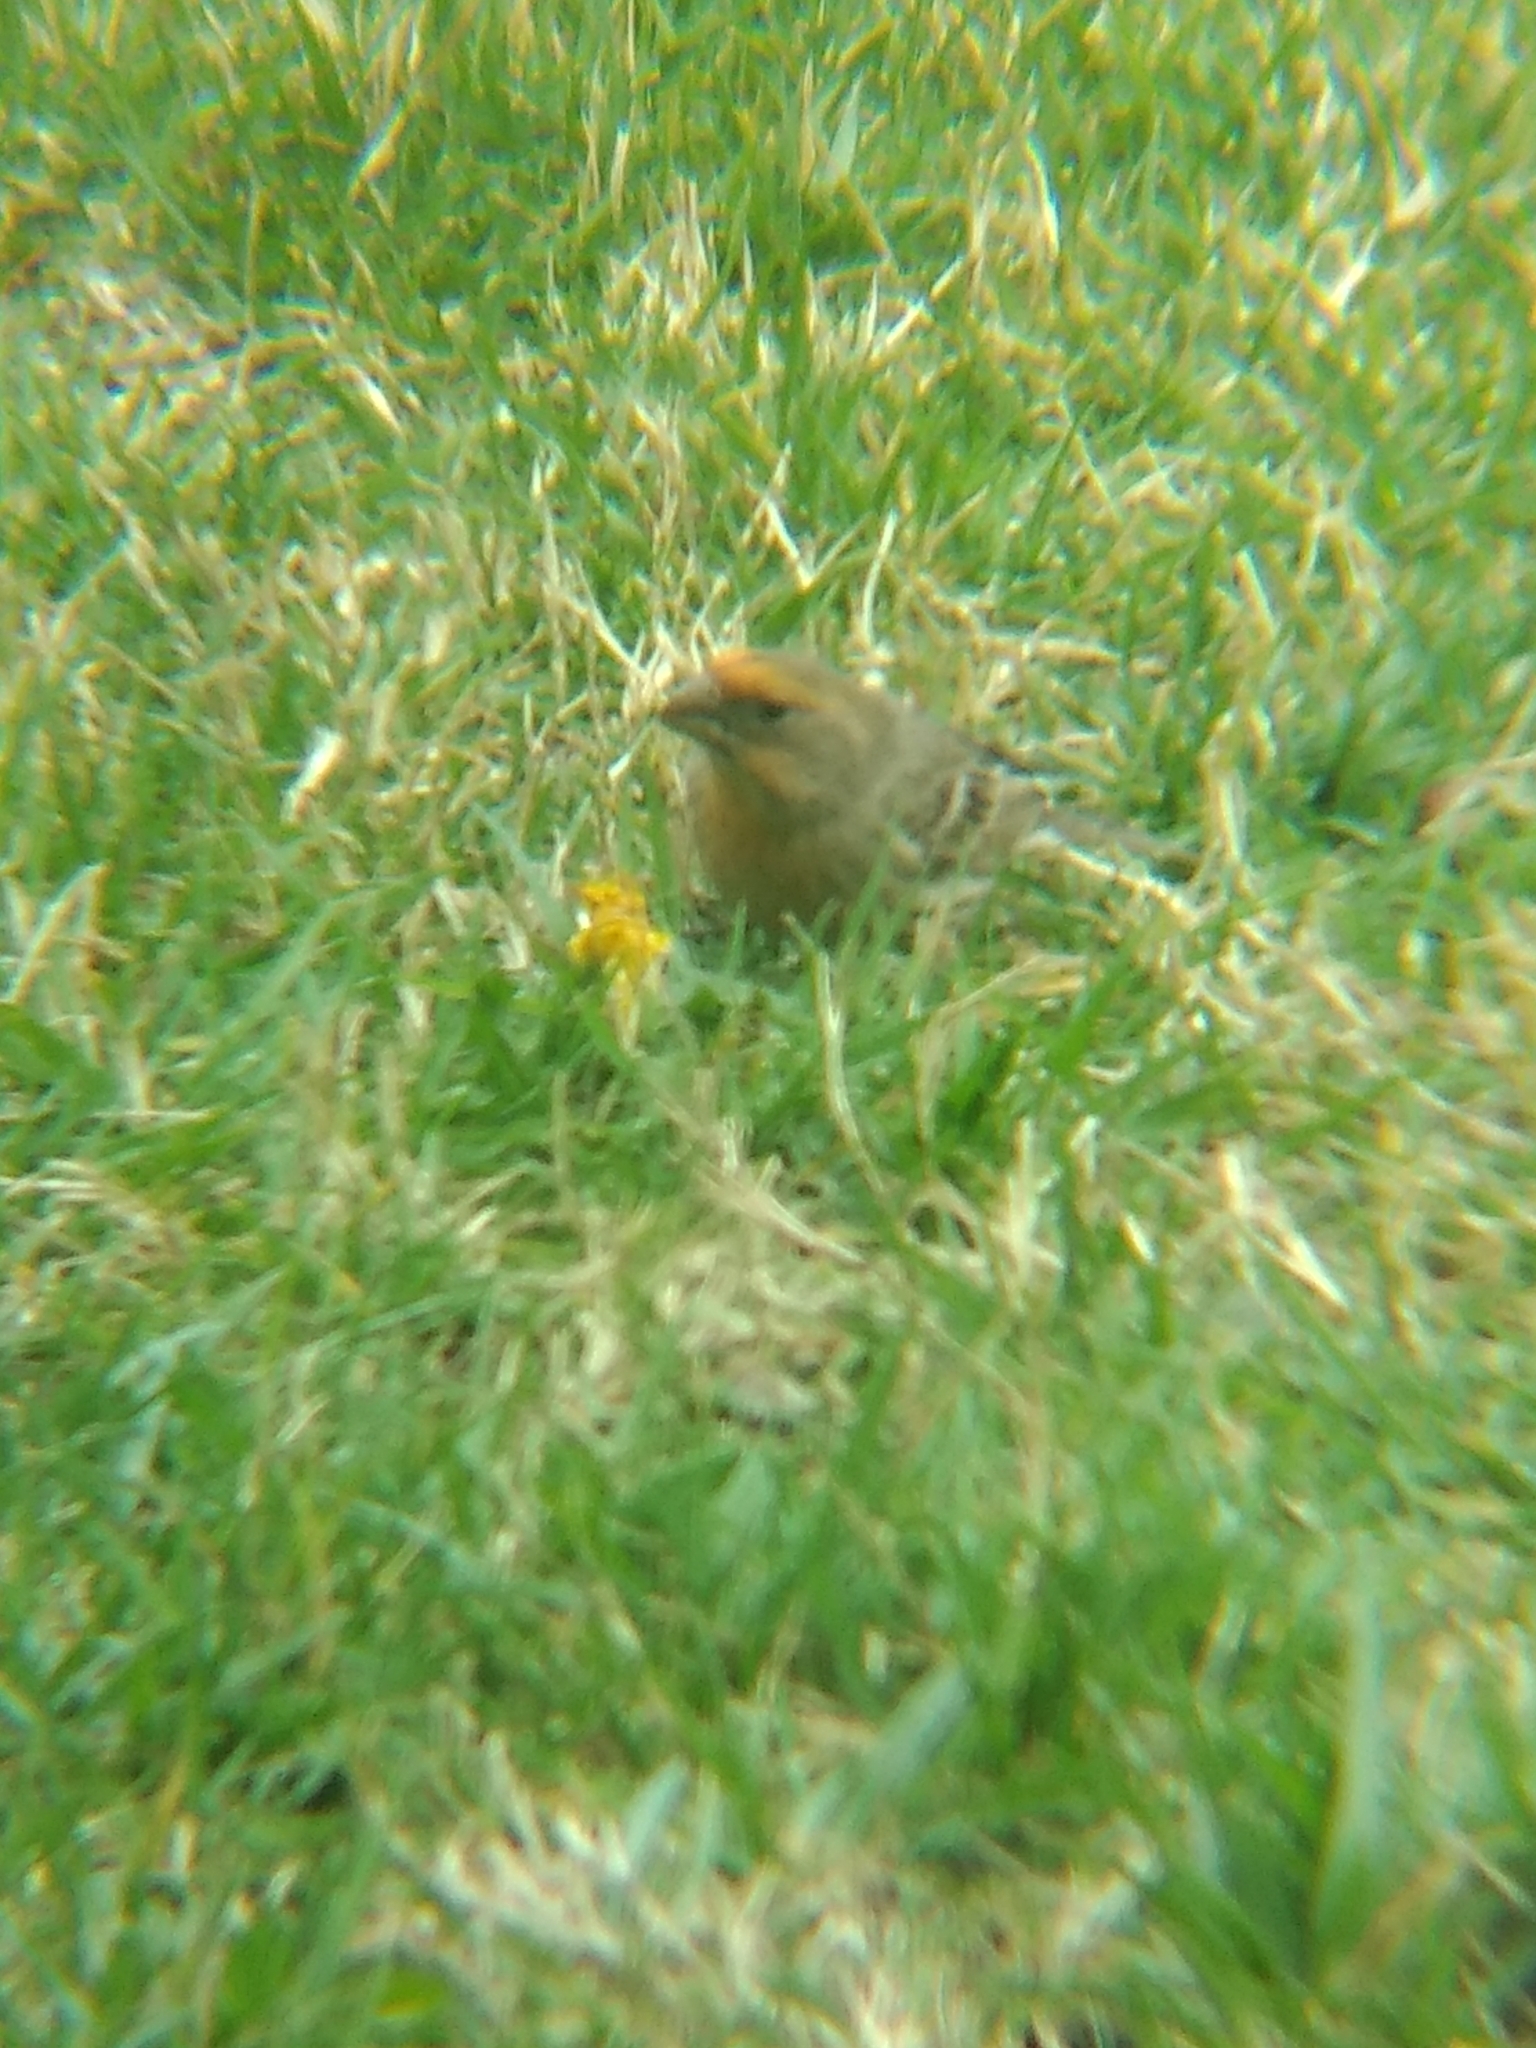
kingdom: Animalia
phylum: Chordata
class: Aves
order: Passeriformes
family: Fringillidae
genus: Haemorhous
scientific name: Haemorhous mexicanus
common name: House finch
